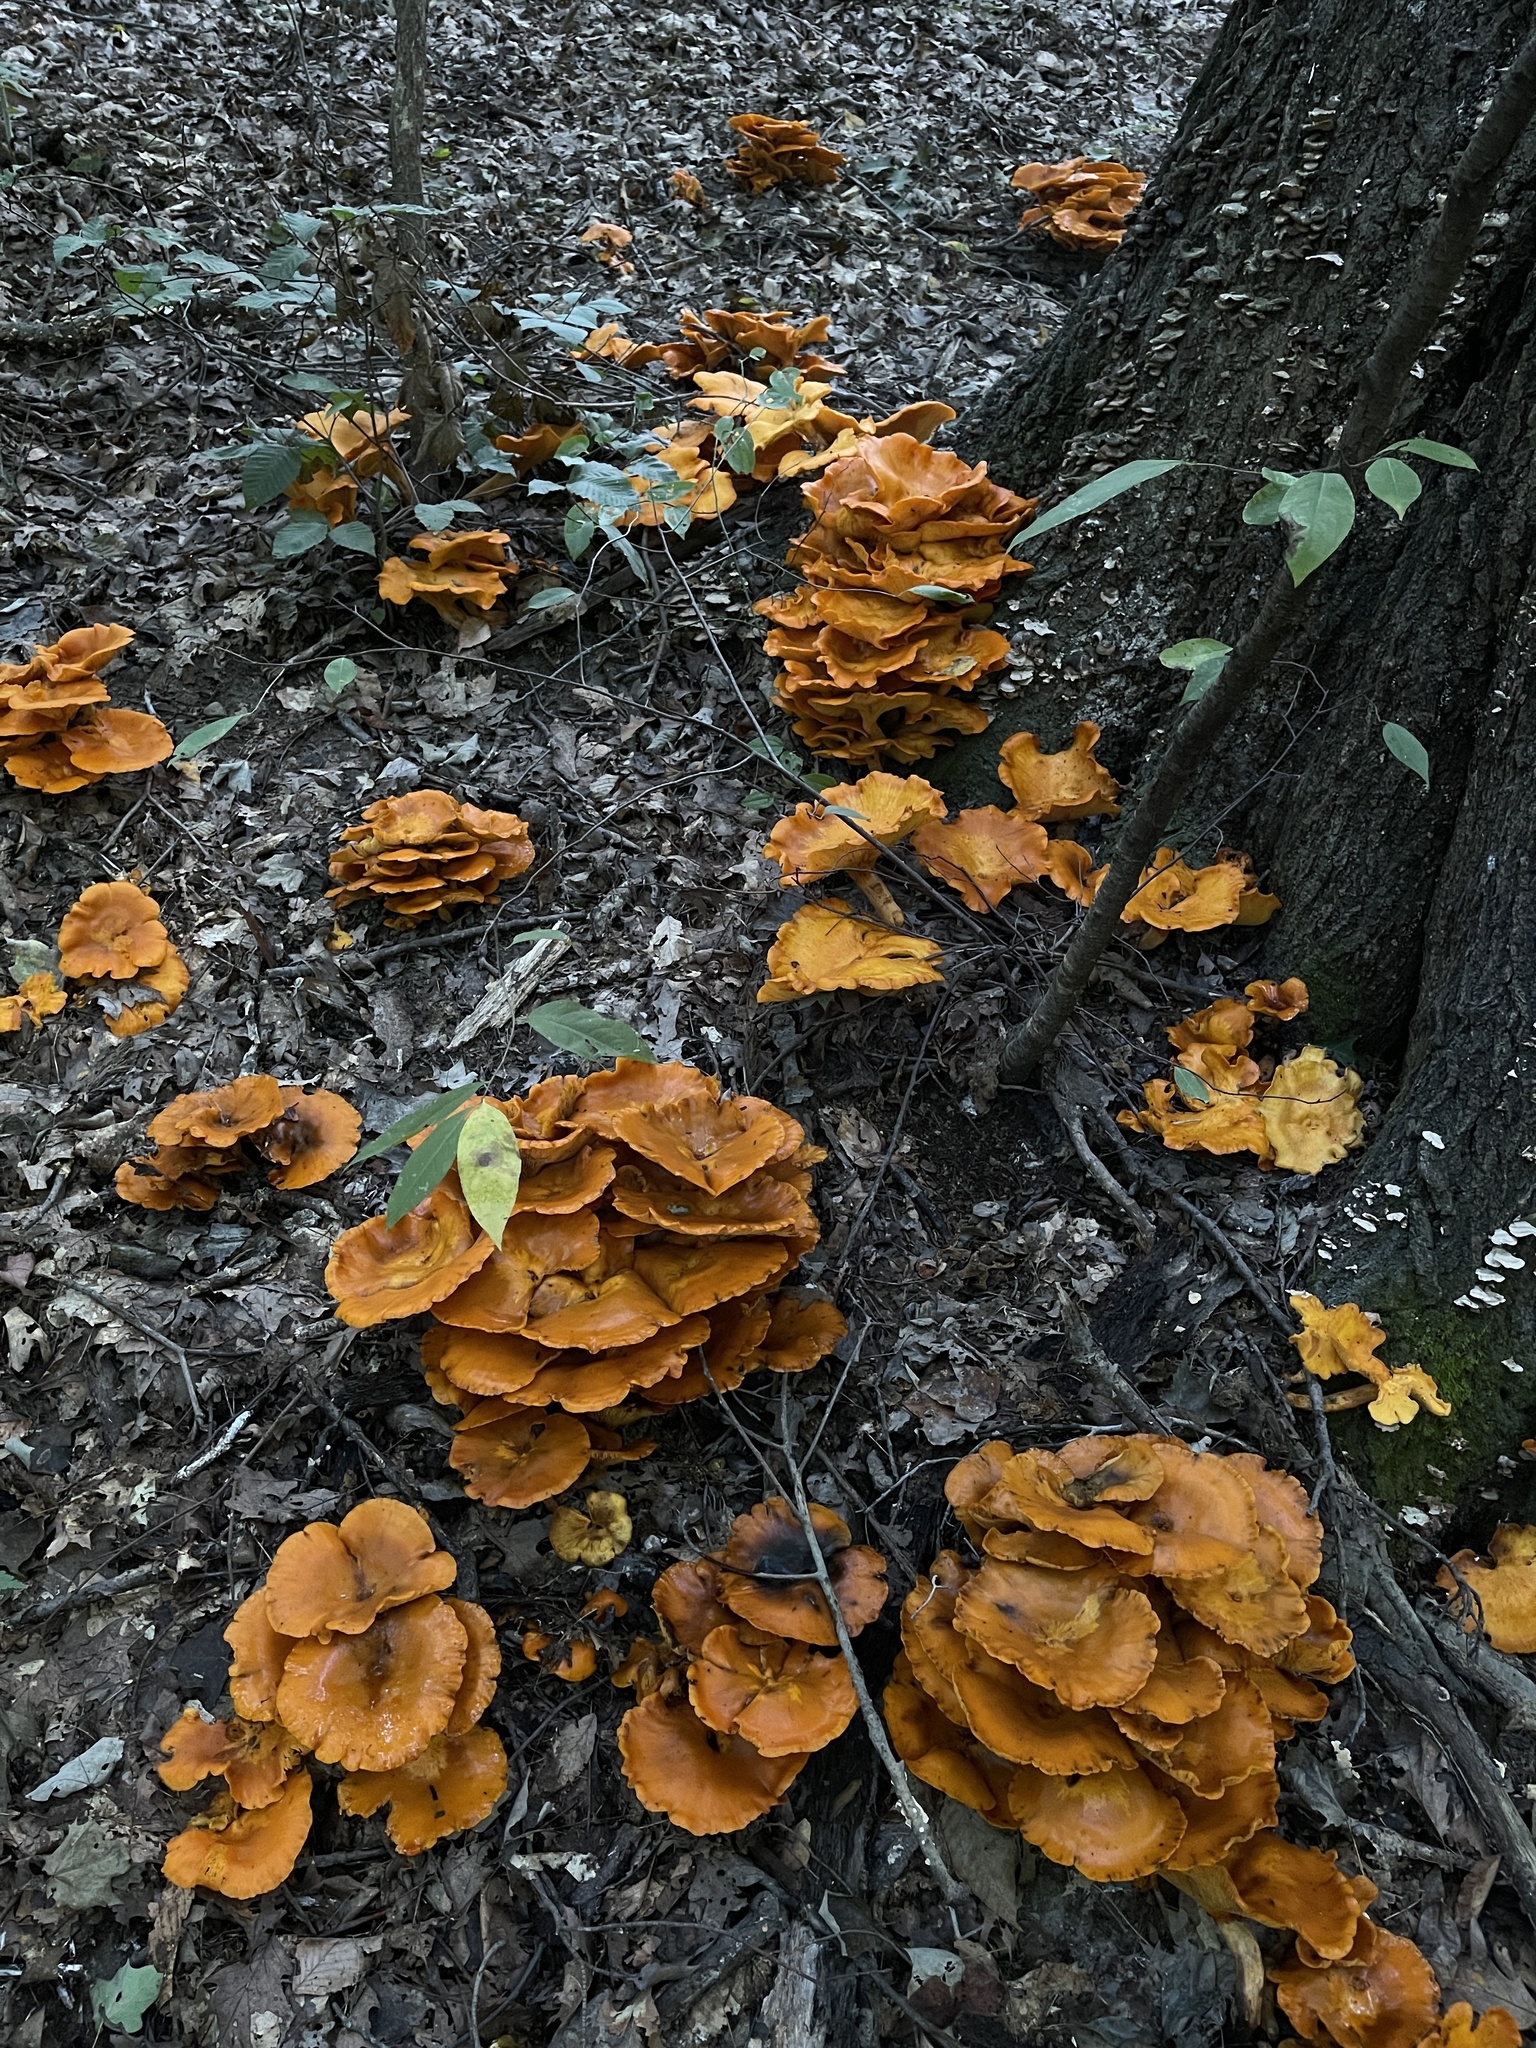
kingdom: Fungi
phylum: Basidiomycota
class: Agaricomycetes
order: Agaricales
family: Omphalotaceae
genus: Omphalotus
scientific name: Omphalotus illudens
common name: Jack o lantern
